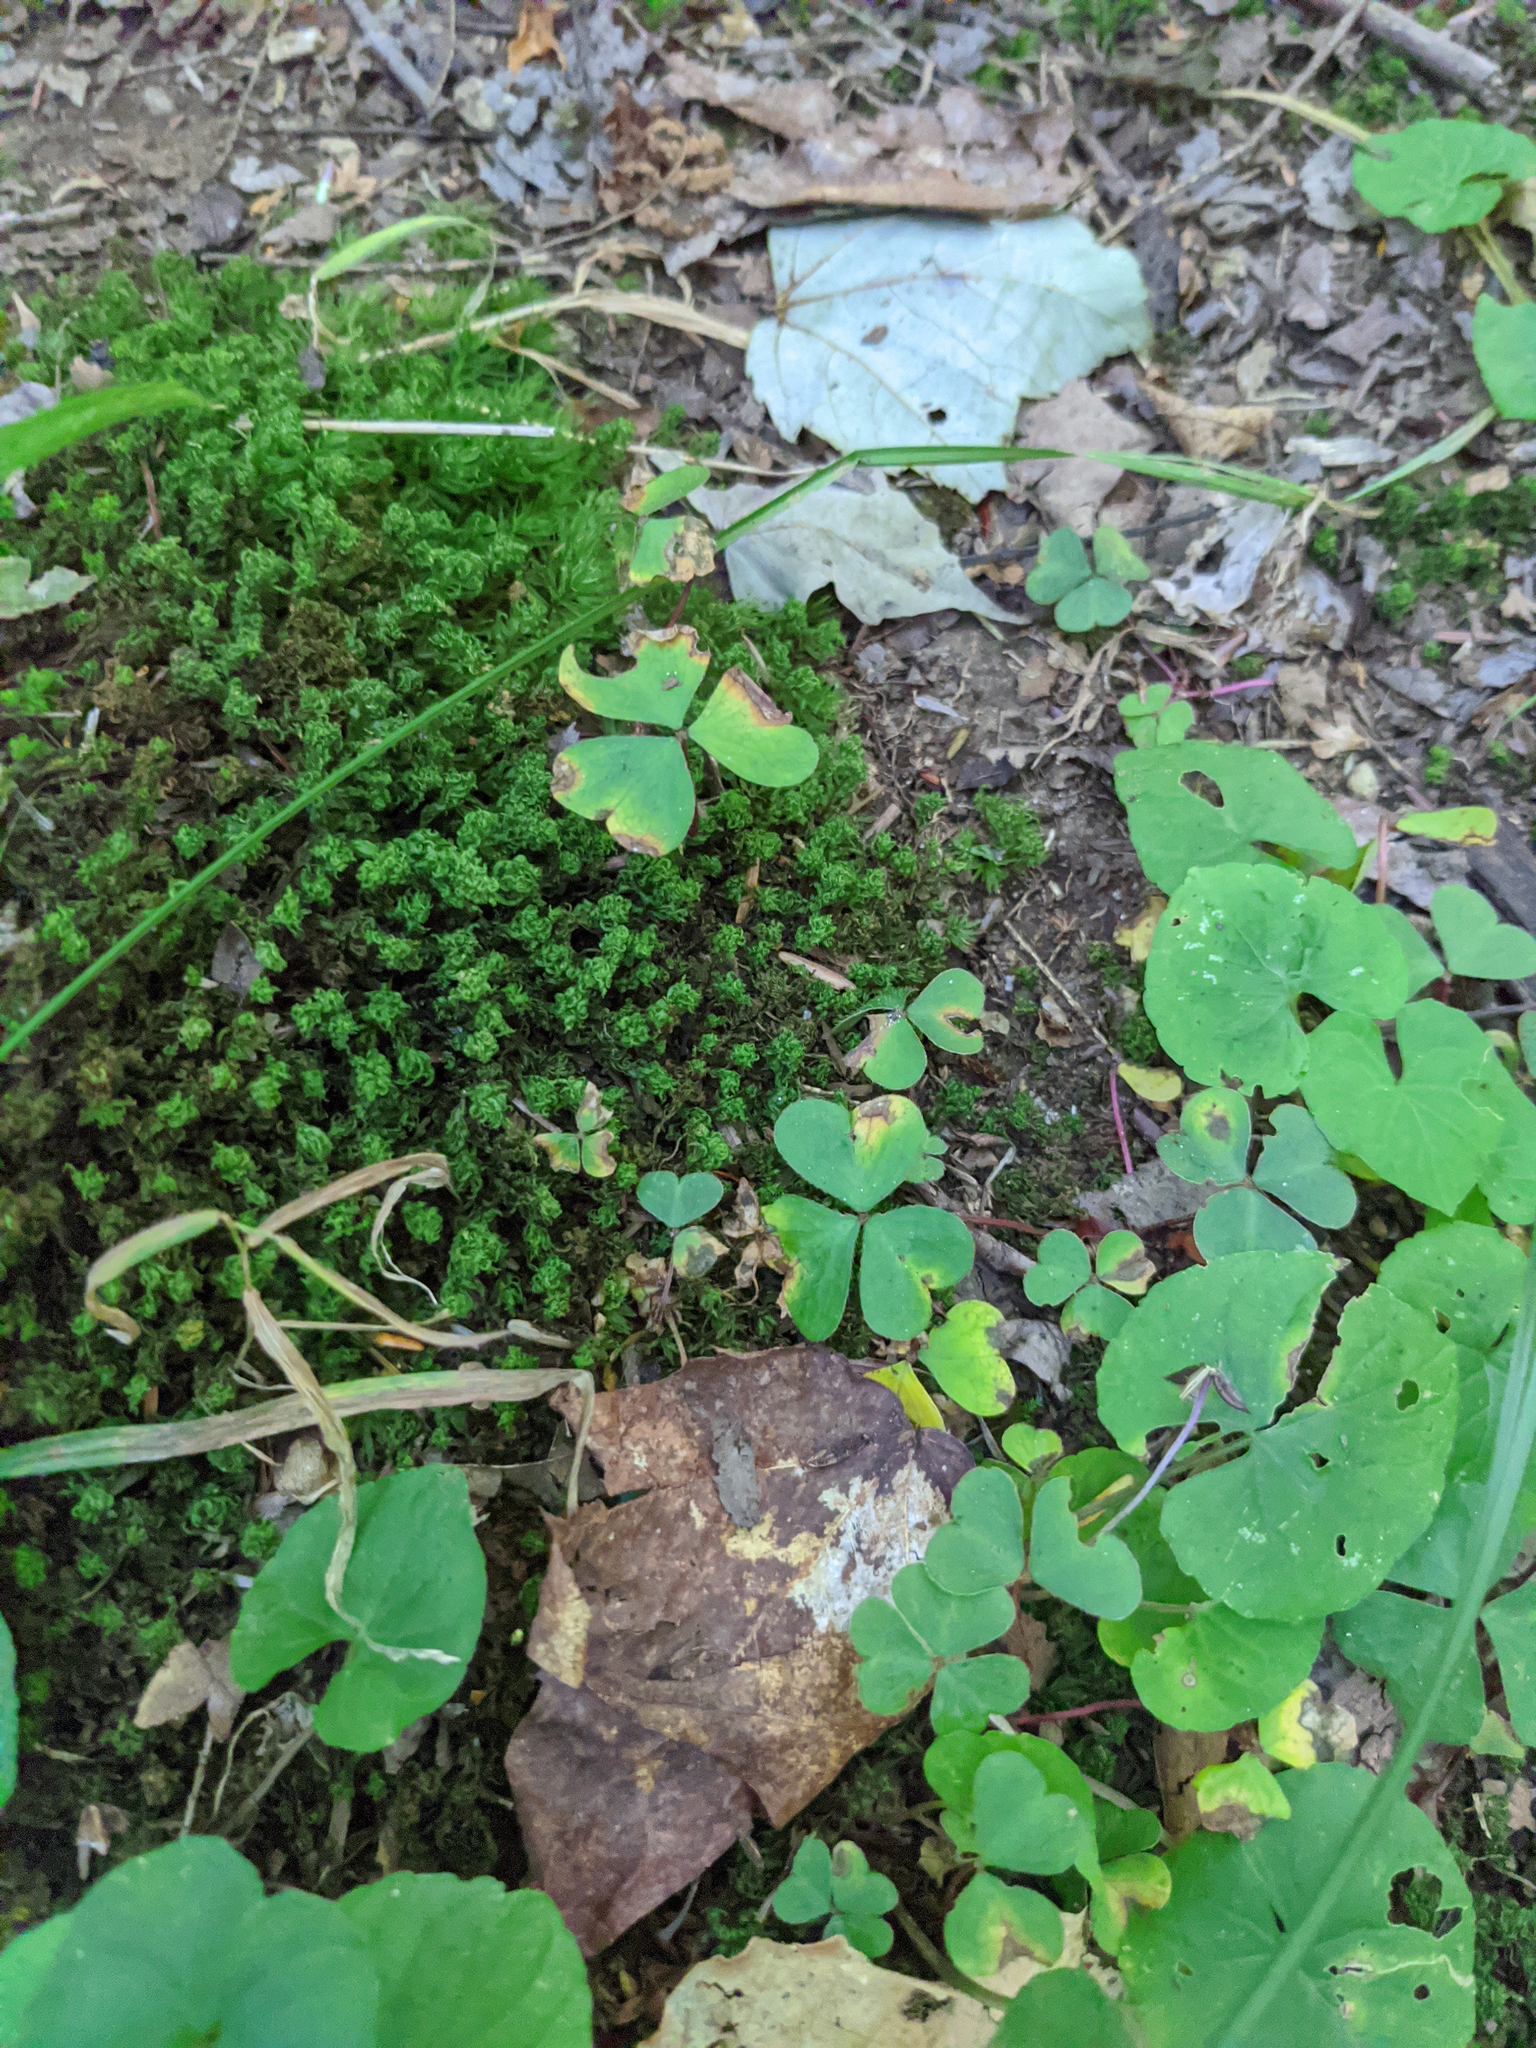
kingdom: Plantae
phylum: Tracheophyta
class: Magnoliopsida
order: Oxalidales
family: Oxalidaceae
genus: Oxalis
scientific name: Oxalis montana
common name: American wood-sorrel
